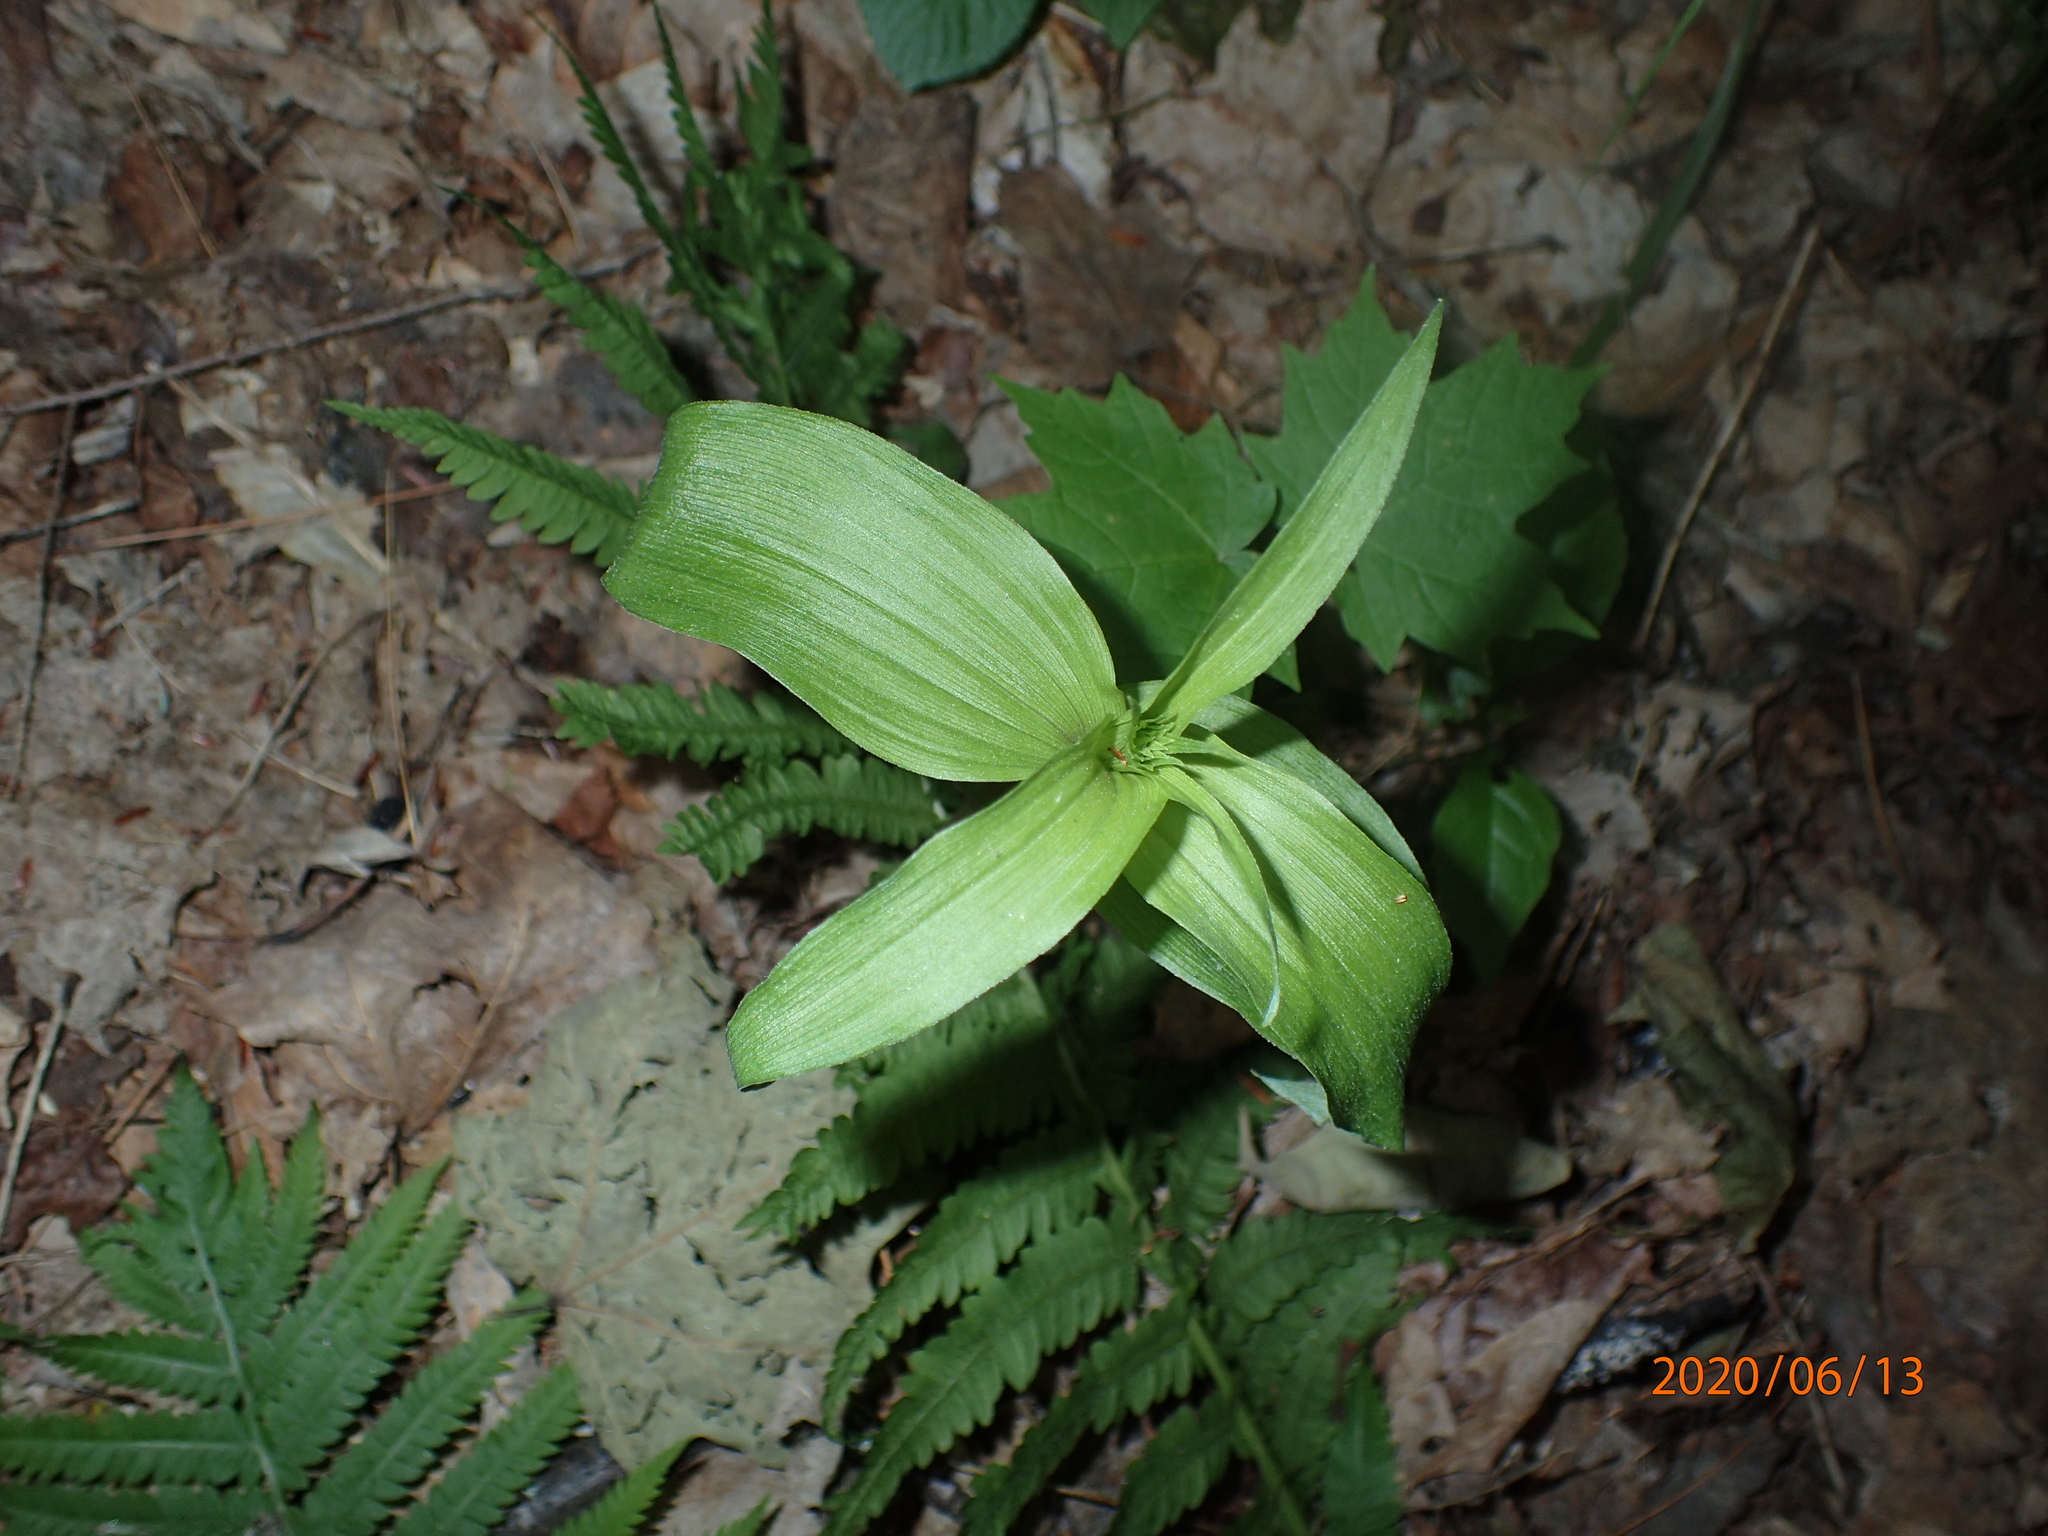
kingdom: Plantae
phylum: Tracheophyta
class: Liliopsida
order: Asparagales
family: Orchidaceae
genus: Epipactis
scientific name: Epipactis helleborine
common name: Broad-leaved helleborine
